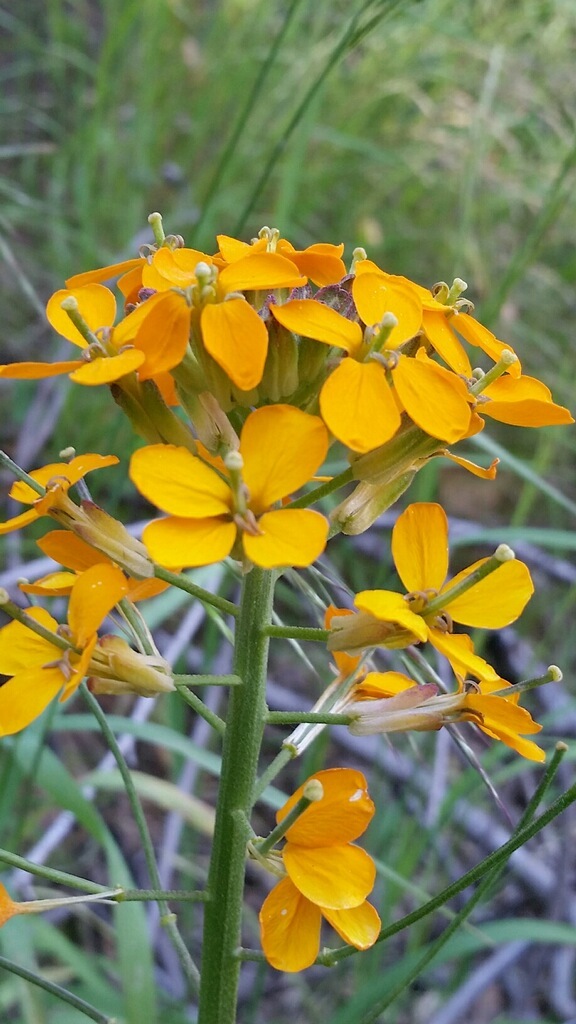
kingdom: Plantae
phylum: Tracheophyta
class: Magnoliopsida
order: Brassicales
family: Brassicaceae
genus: Erysimum
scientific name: Erysimum capitatum
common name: Western wallflower
